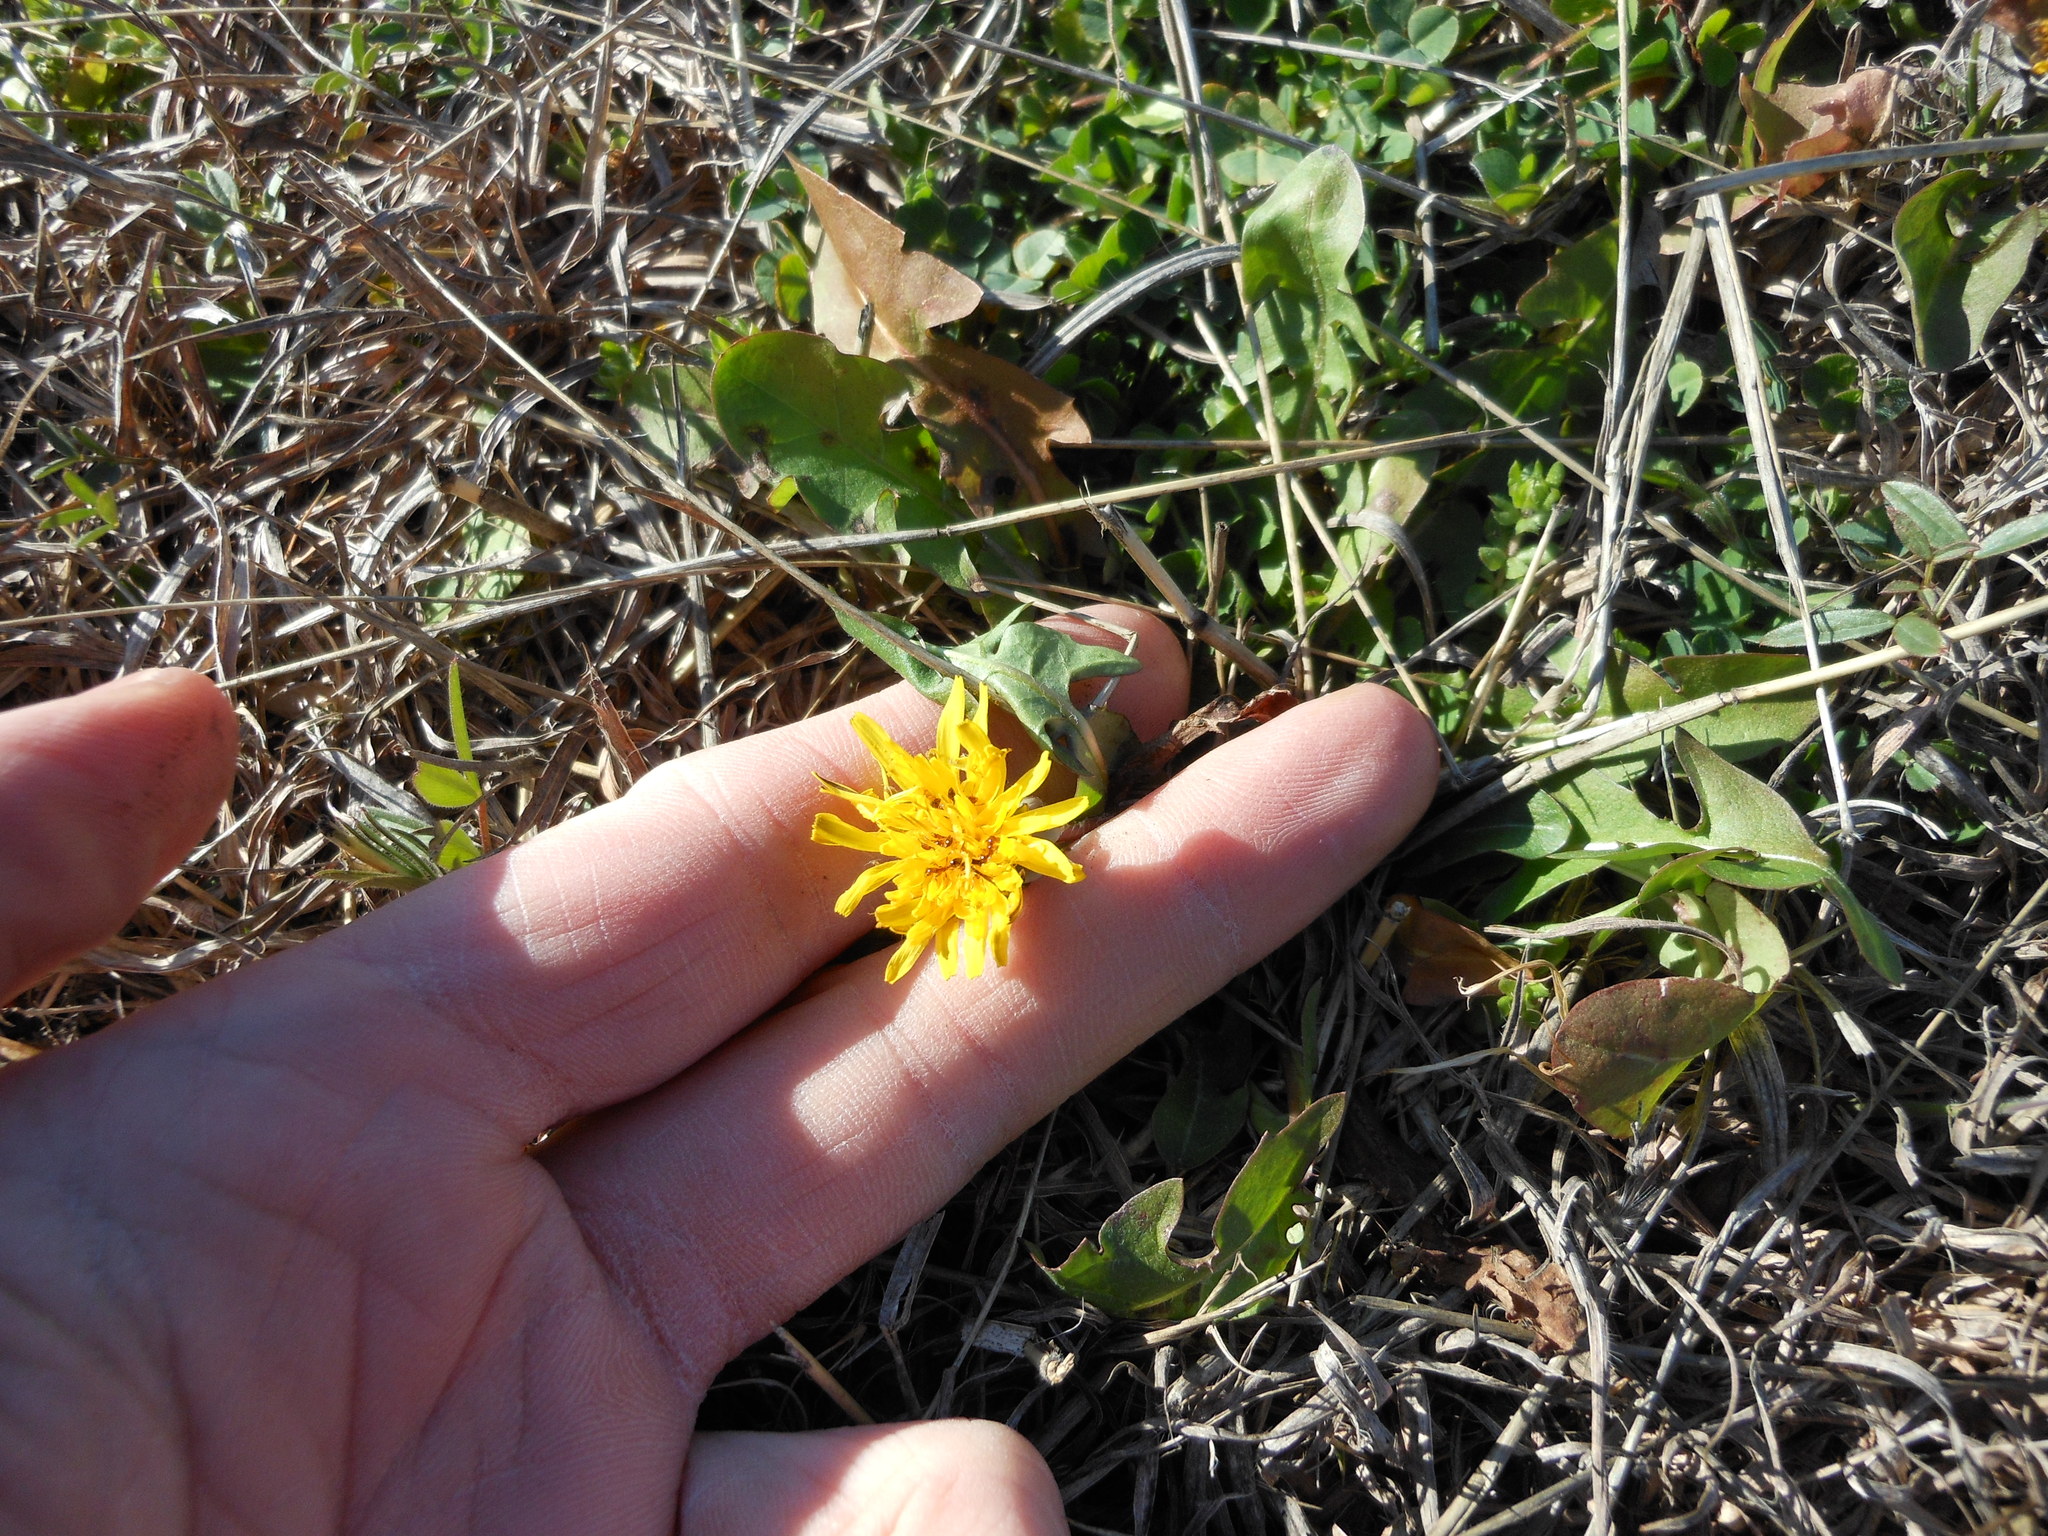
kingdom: Plantae
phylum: Tracheophyta
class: Magnoliopsida
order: Asterales
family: Asteraceae
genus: Taraxacum
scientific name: Taraxacum officinale
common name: Common dandelion
